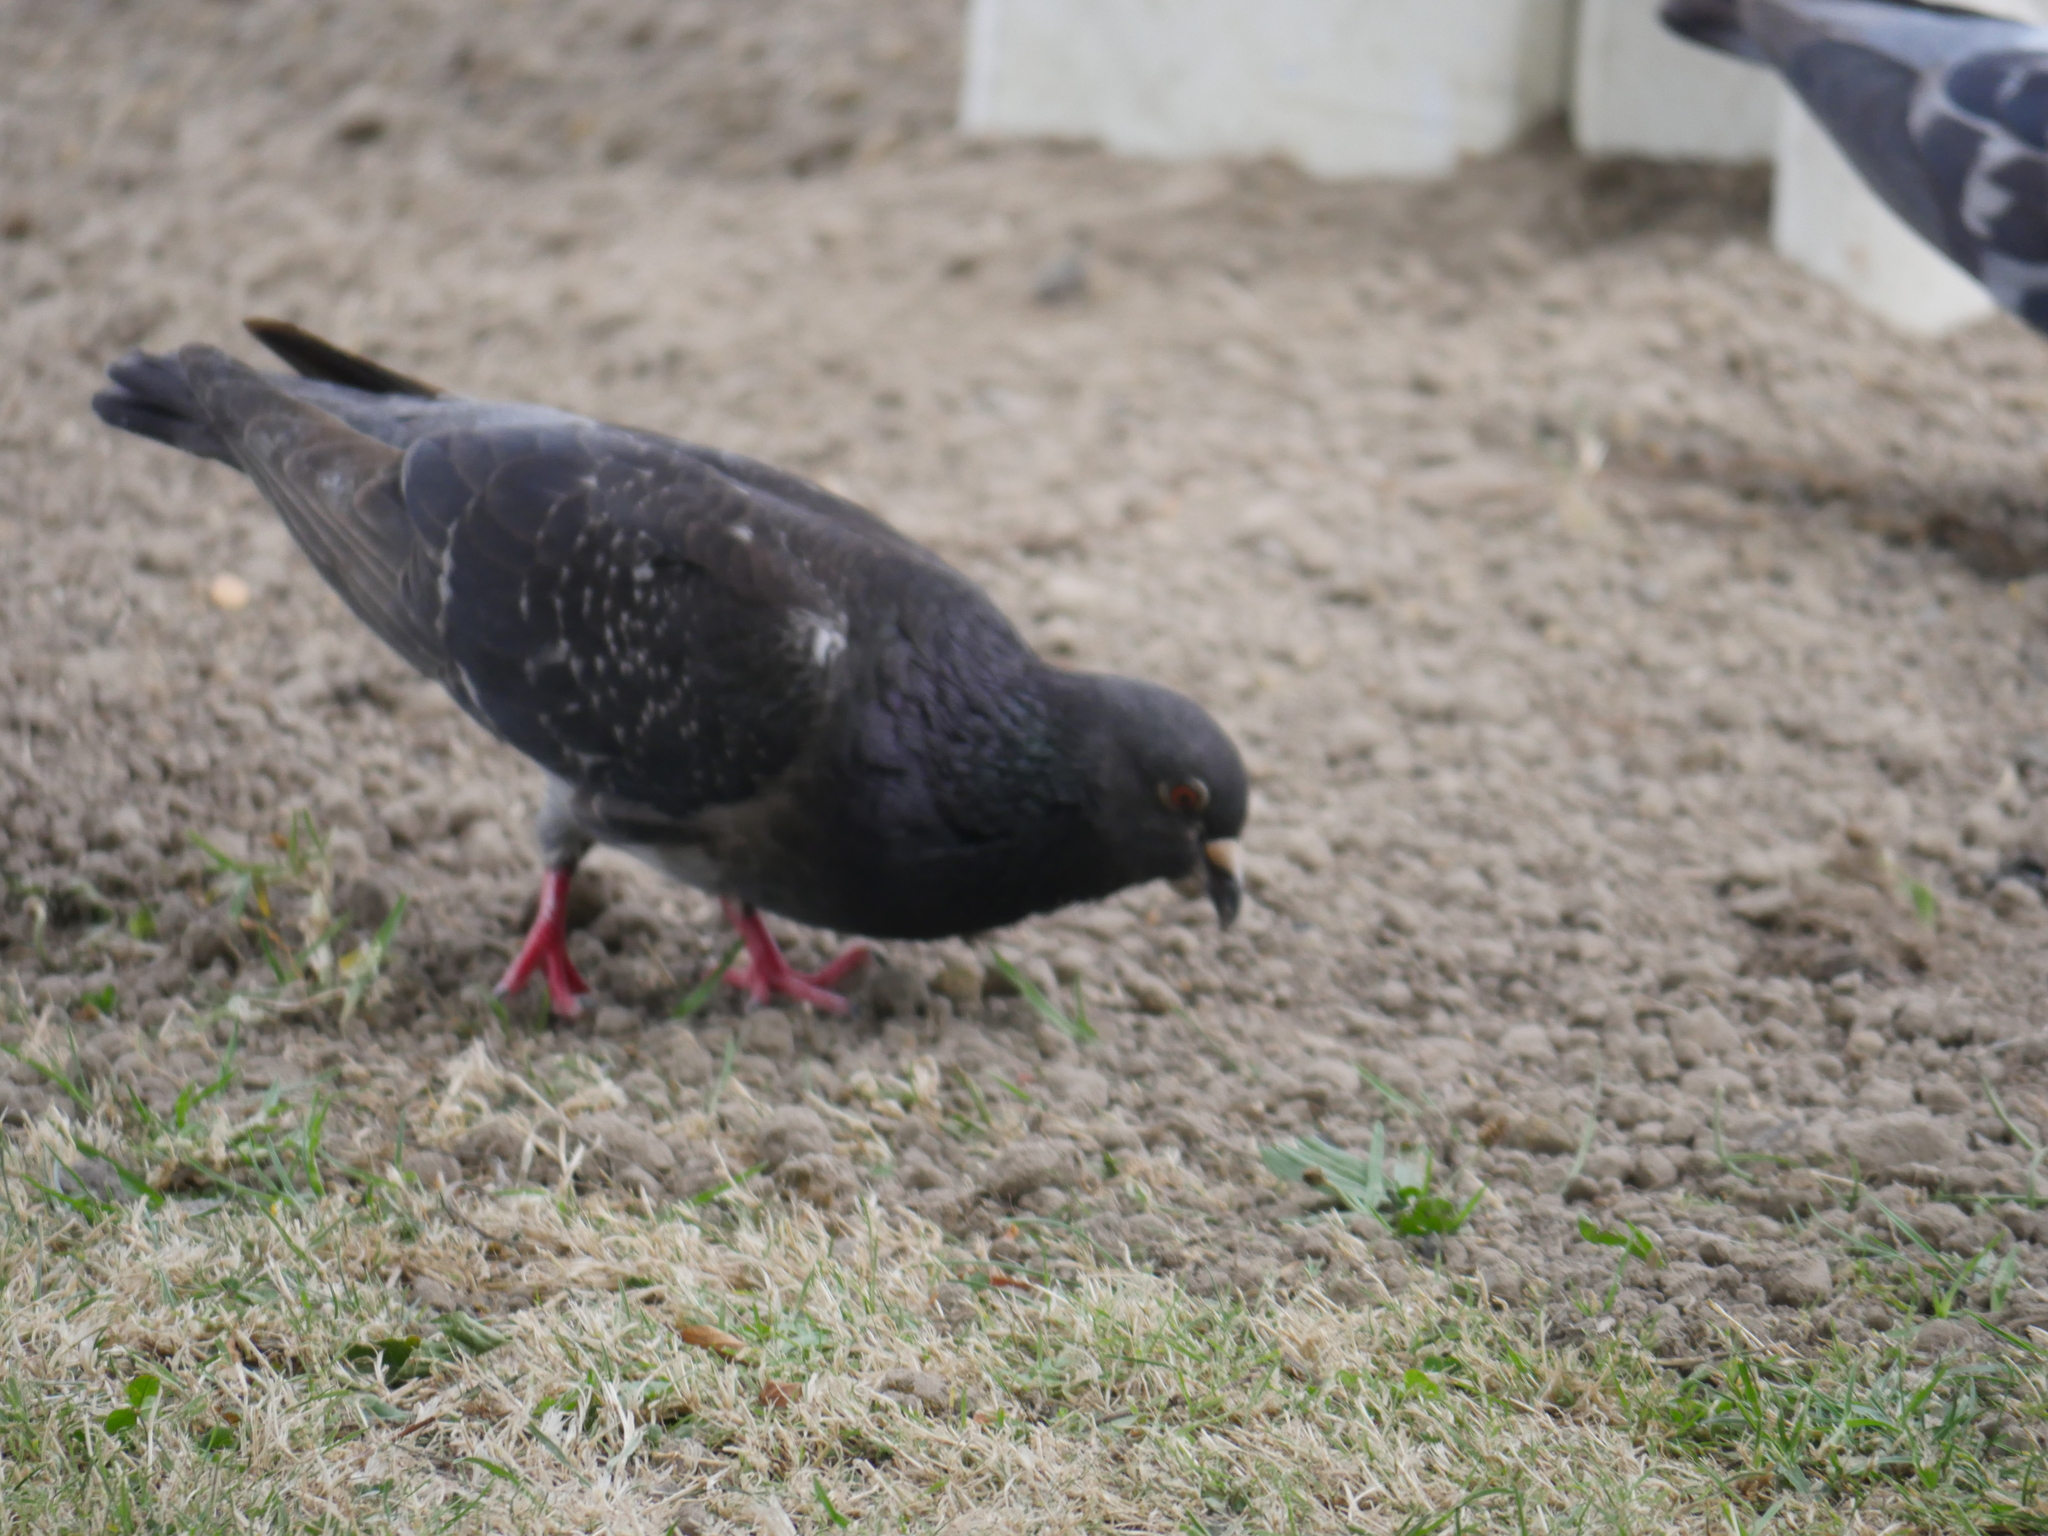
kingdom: Animalia
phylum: Chordata
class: Aves
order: Columbiformes
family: Columbidae
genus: Columba
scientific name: Columba livia
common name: Rock pigeon
